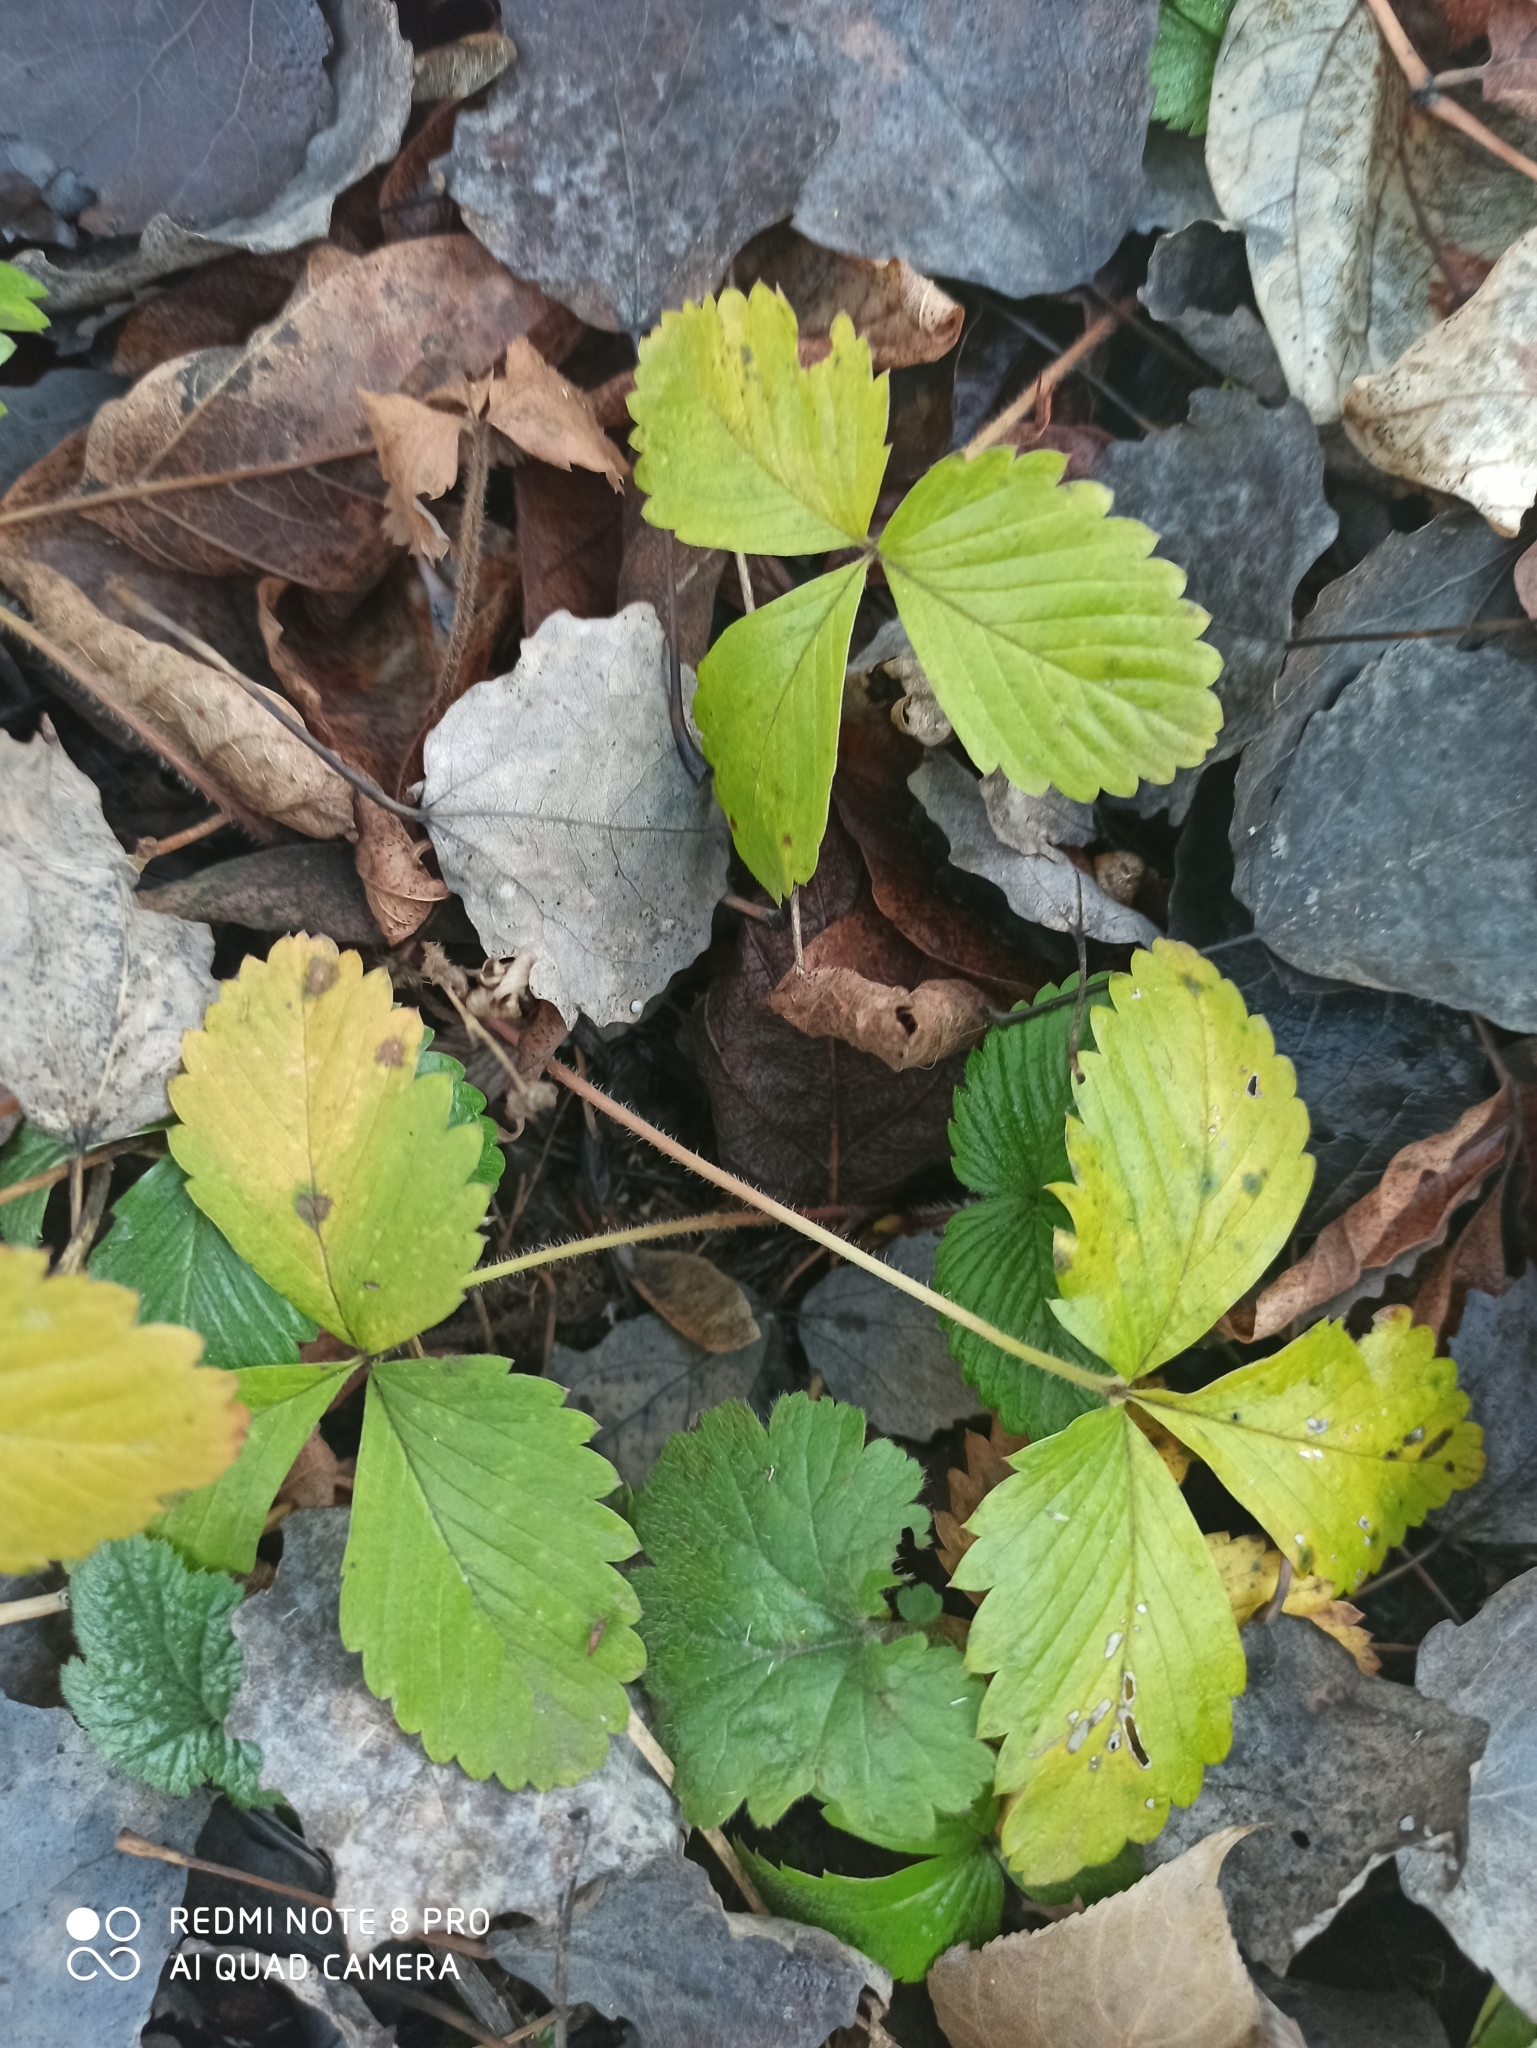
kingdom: Plantae
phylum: Tracheophyta
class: Magnoliopsida
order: Rosales
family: Rosaceae
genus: Fragaria
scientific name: Fragaria vesca
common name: Wild strawberry
